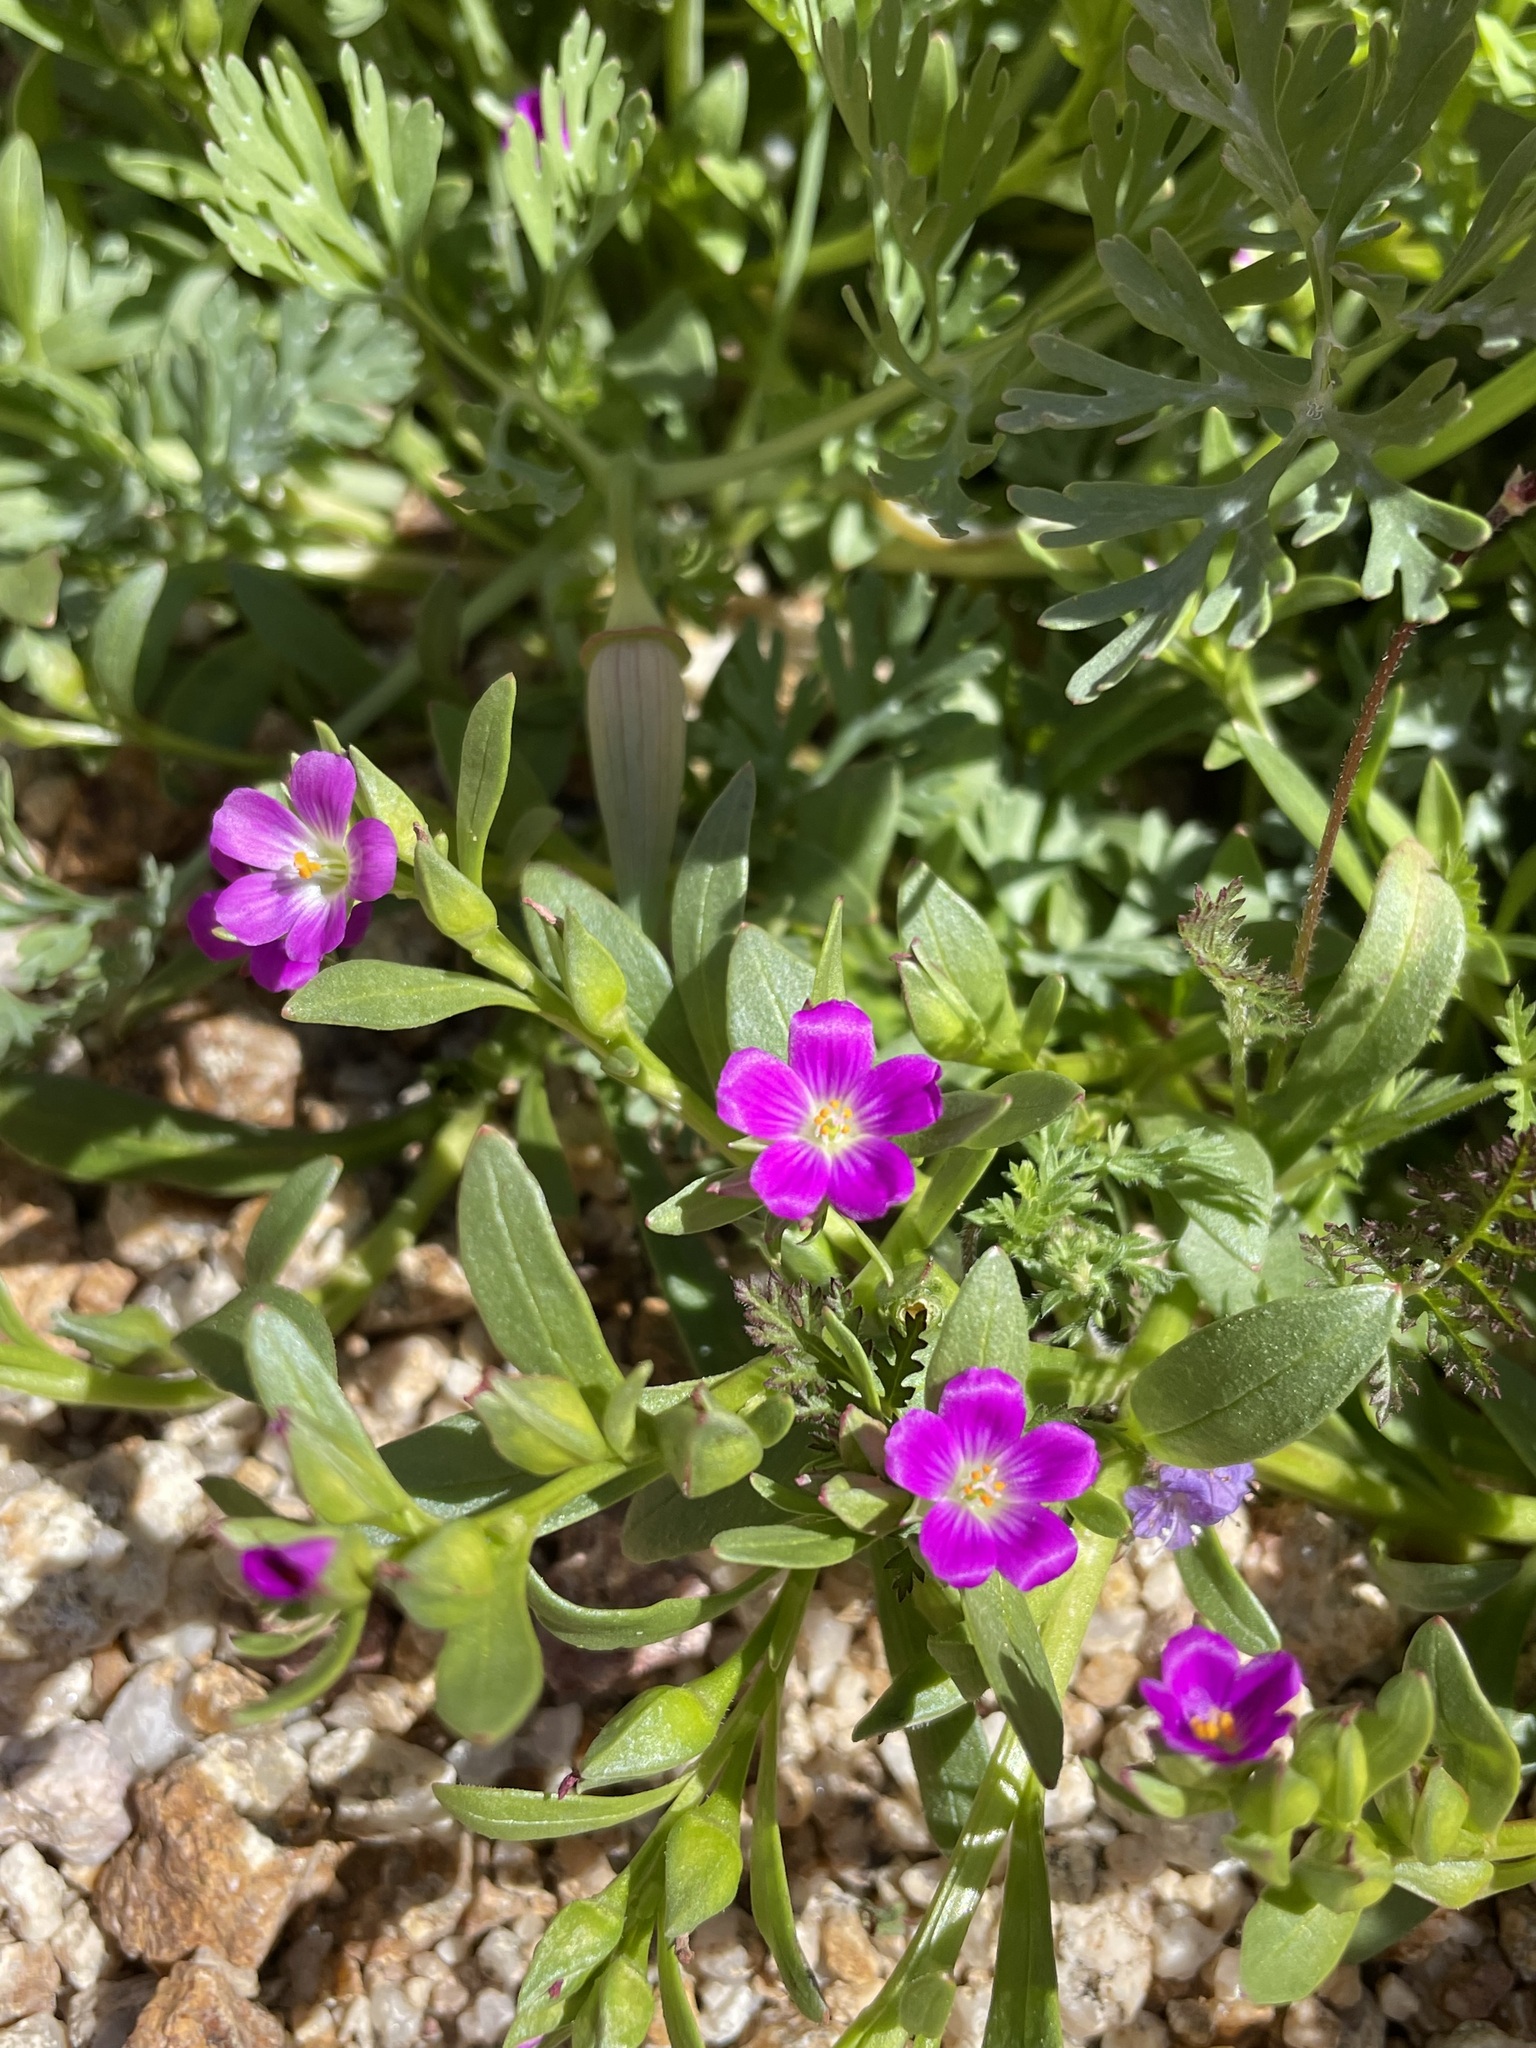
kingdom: Plantae
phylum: Tracheophyta
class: Magnoliopsida
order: Caryophyllales
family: Montiaceae
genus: Calandrinia
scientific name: Calandrinia menziesii
